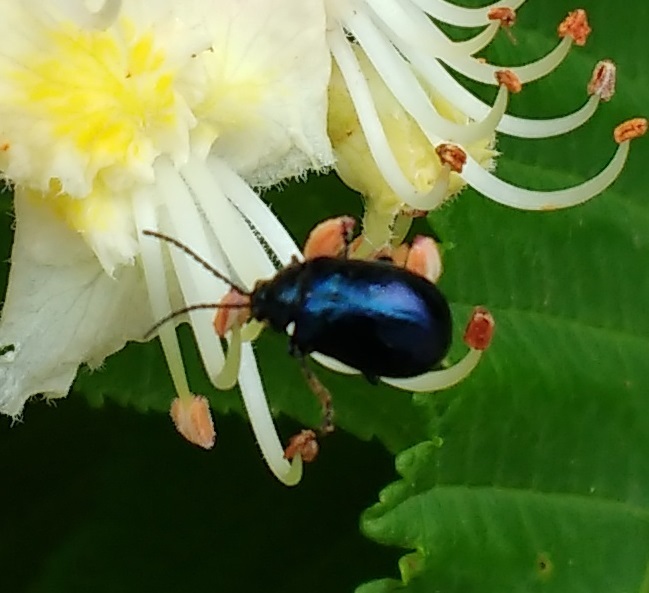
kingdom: Animalia
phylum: Arthropoda
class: Insecta
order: Coleoptera
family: Chrysomelidae
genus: Agelastica
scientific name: Agelastica alni
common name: Alder leaf beetle
